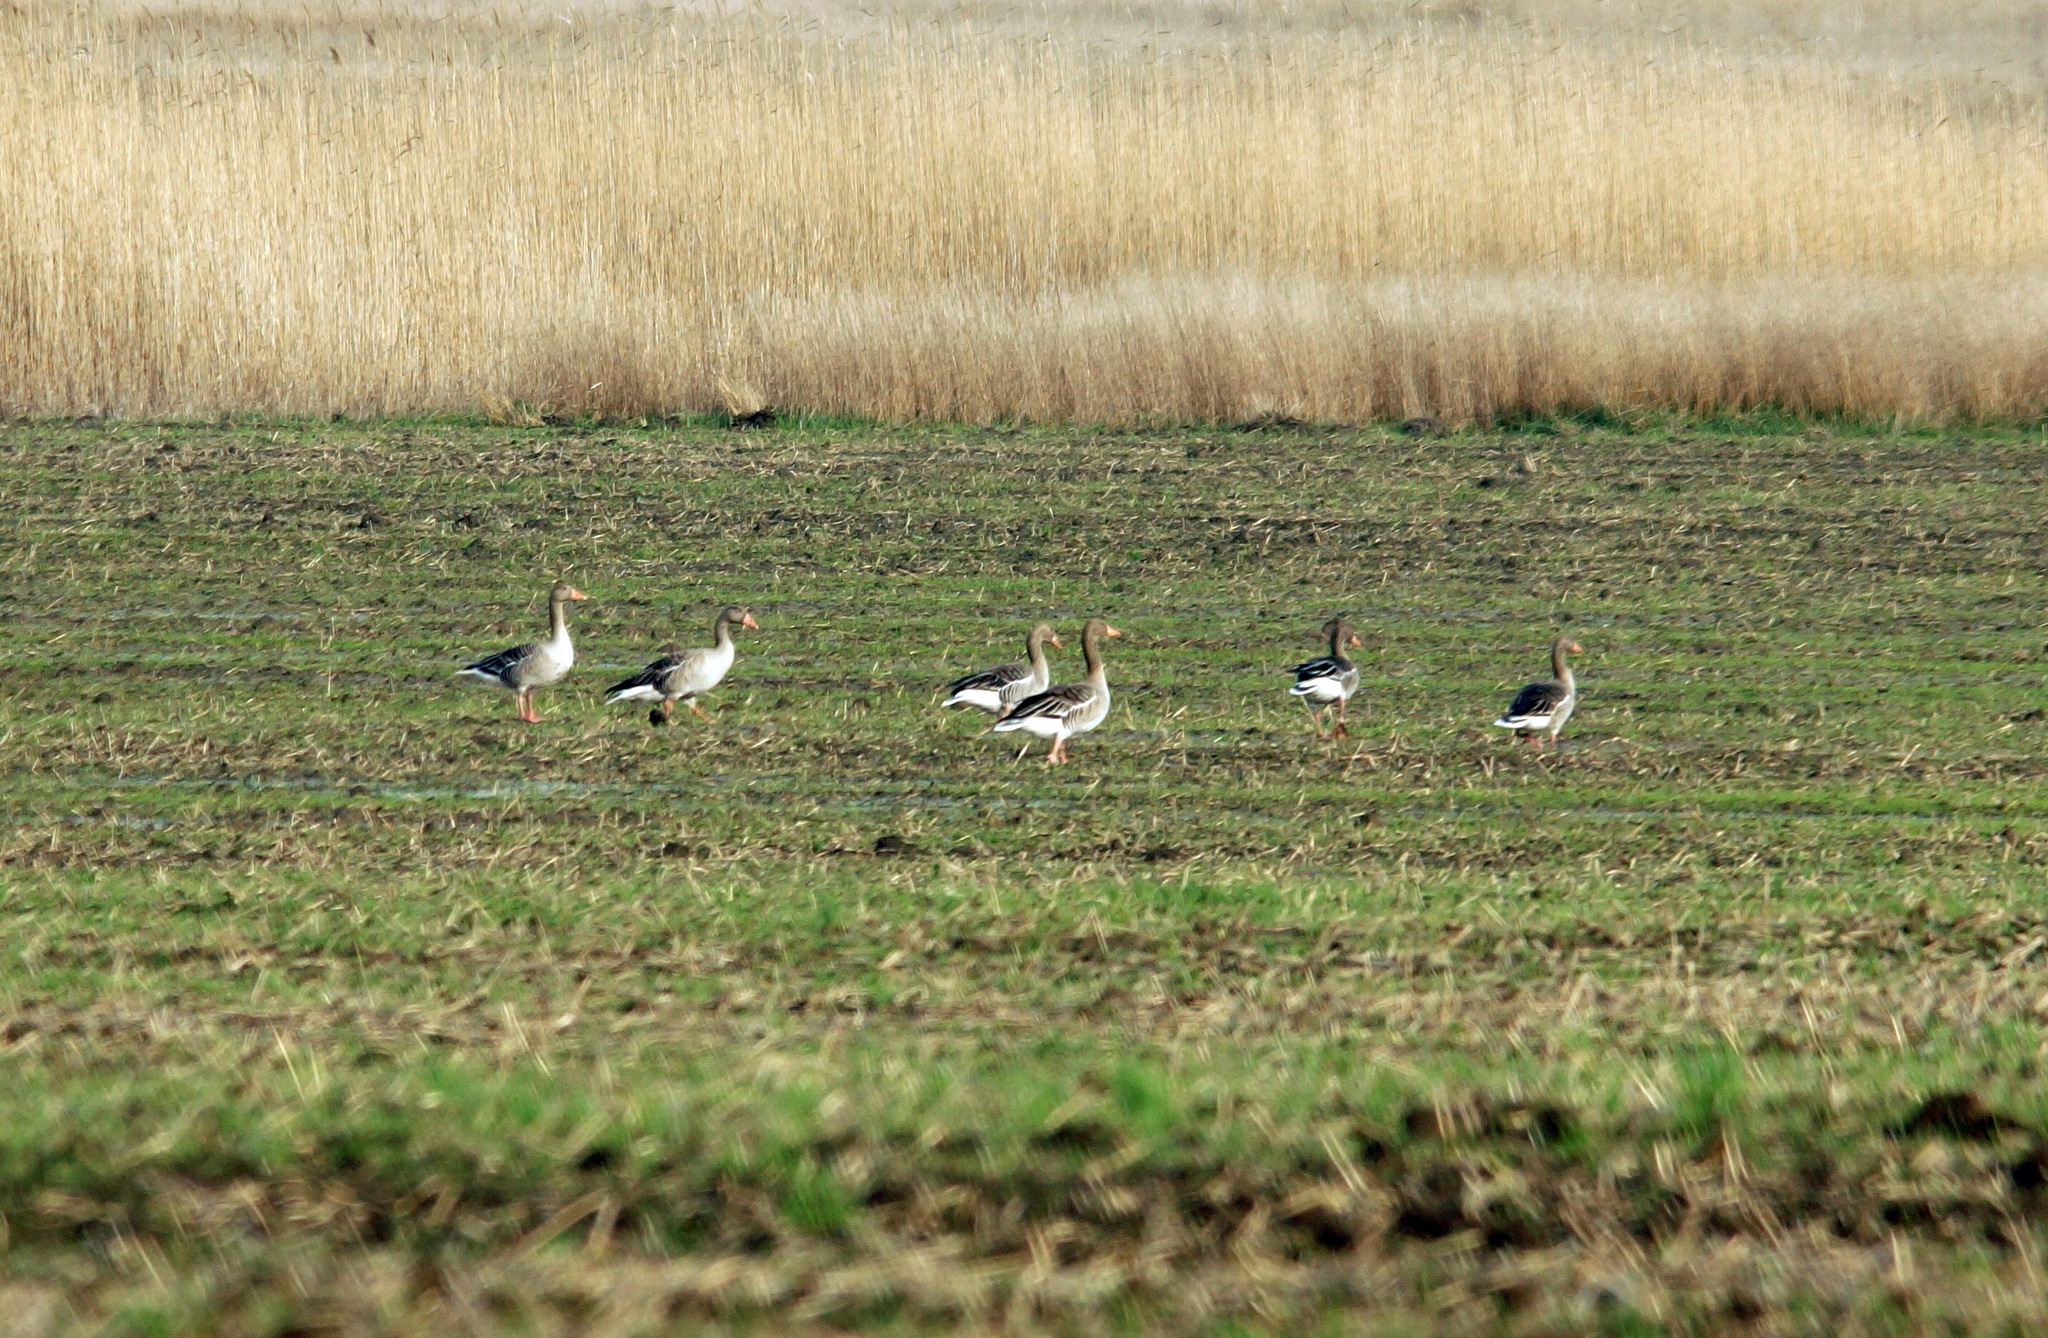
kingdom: Animalia
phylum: Chordata
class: Aves
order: Anseriformes
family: Anatidae
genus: Anser
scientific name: Anser anser
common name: Greylag goose
